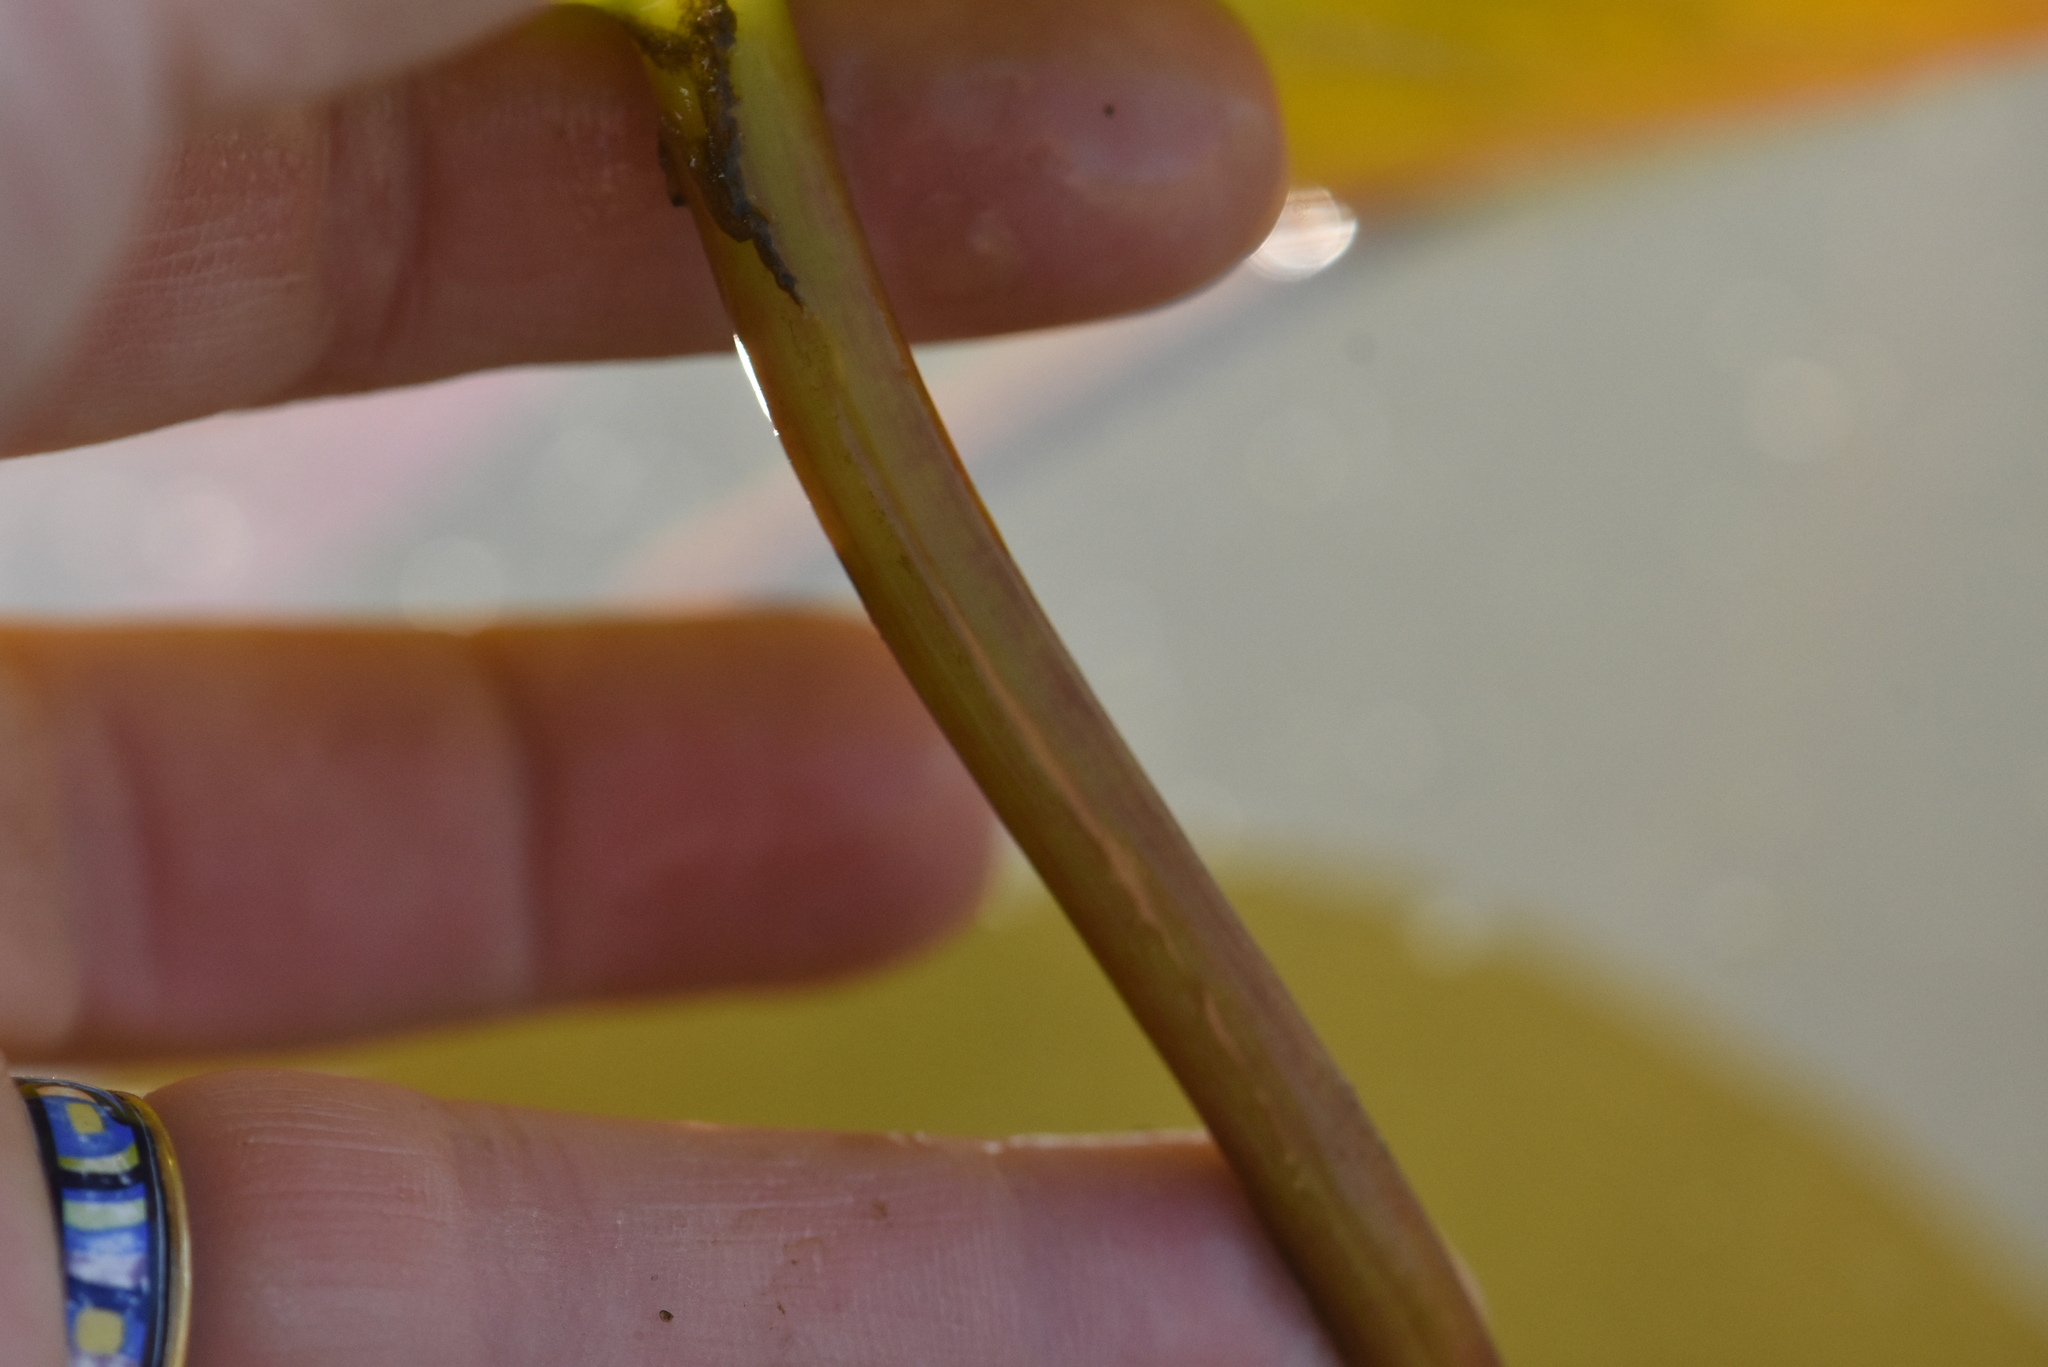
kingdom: Plantae
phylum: Tracheophyta
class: Magnoliopsida
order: Nymphaeales
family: Nymphaeaceae
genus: Nymphaea
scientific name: Nymphaea candida
